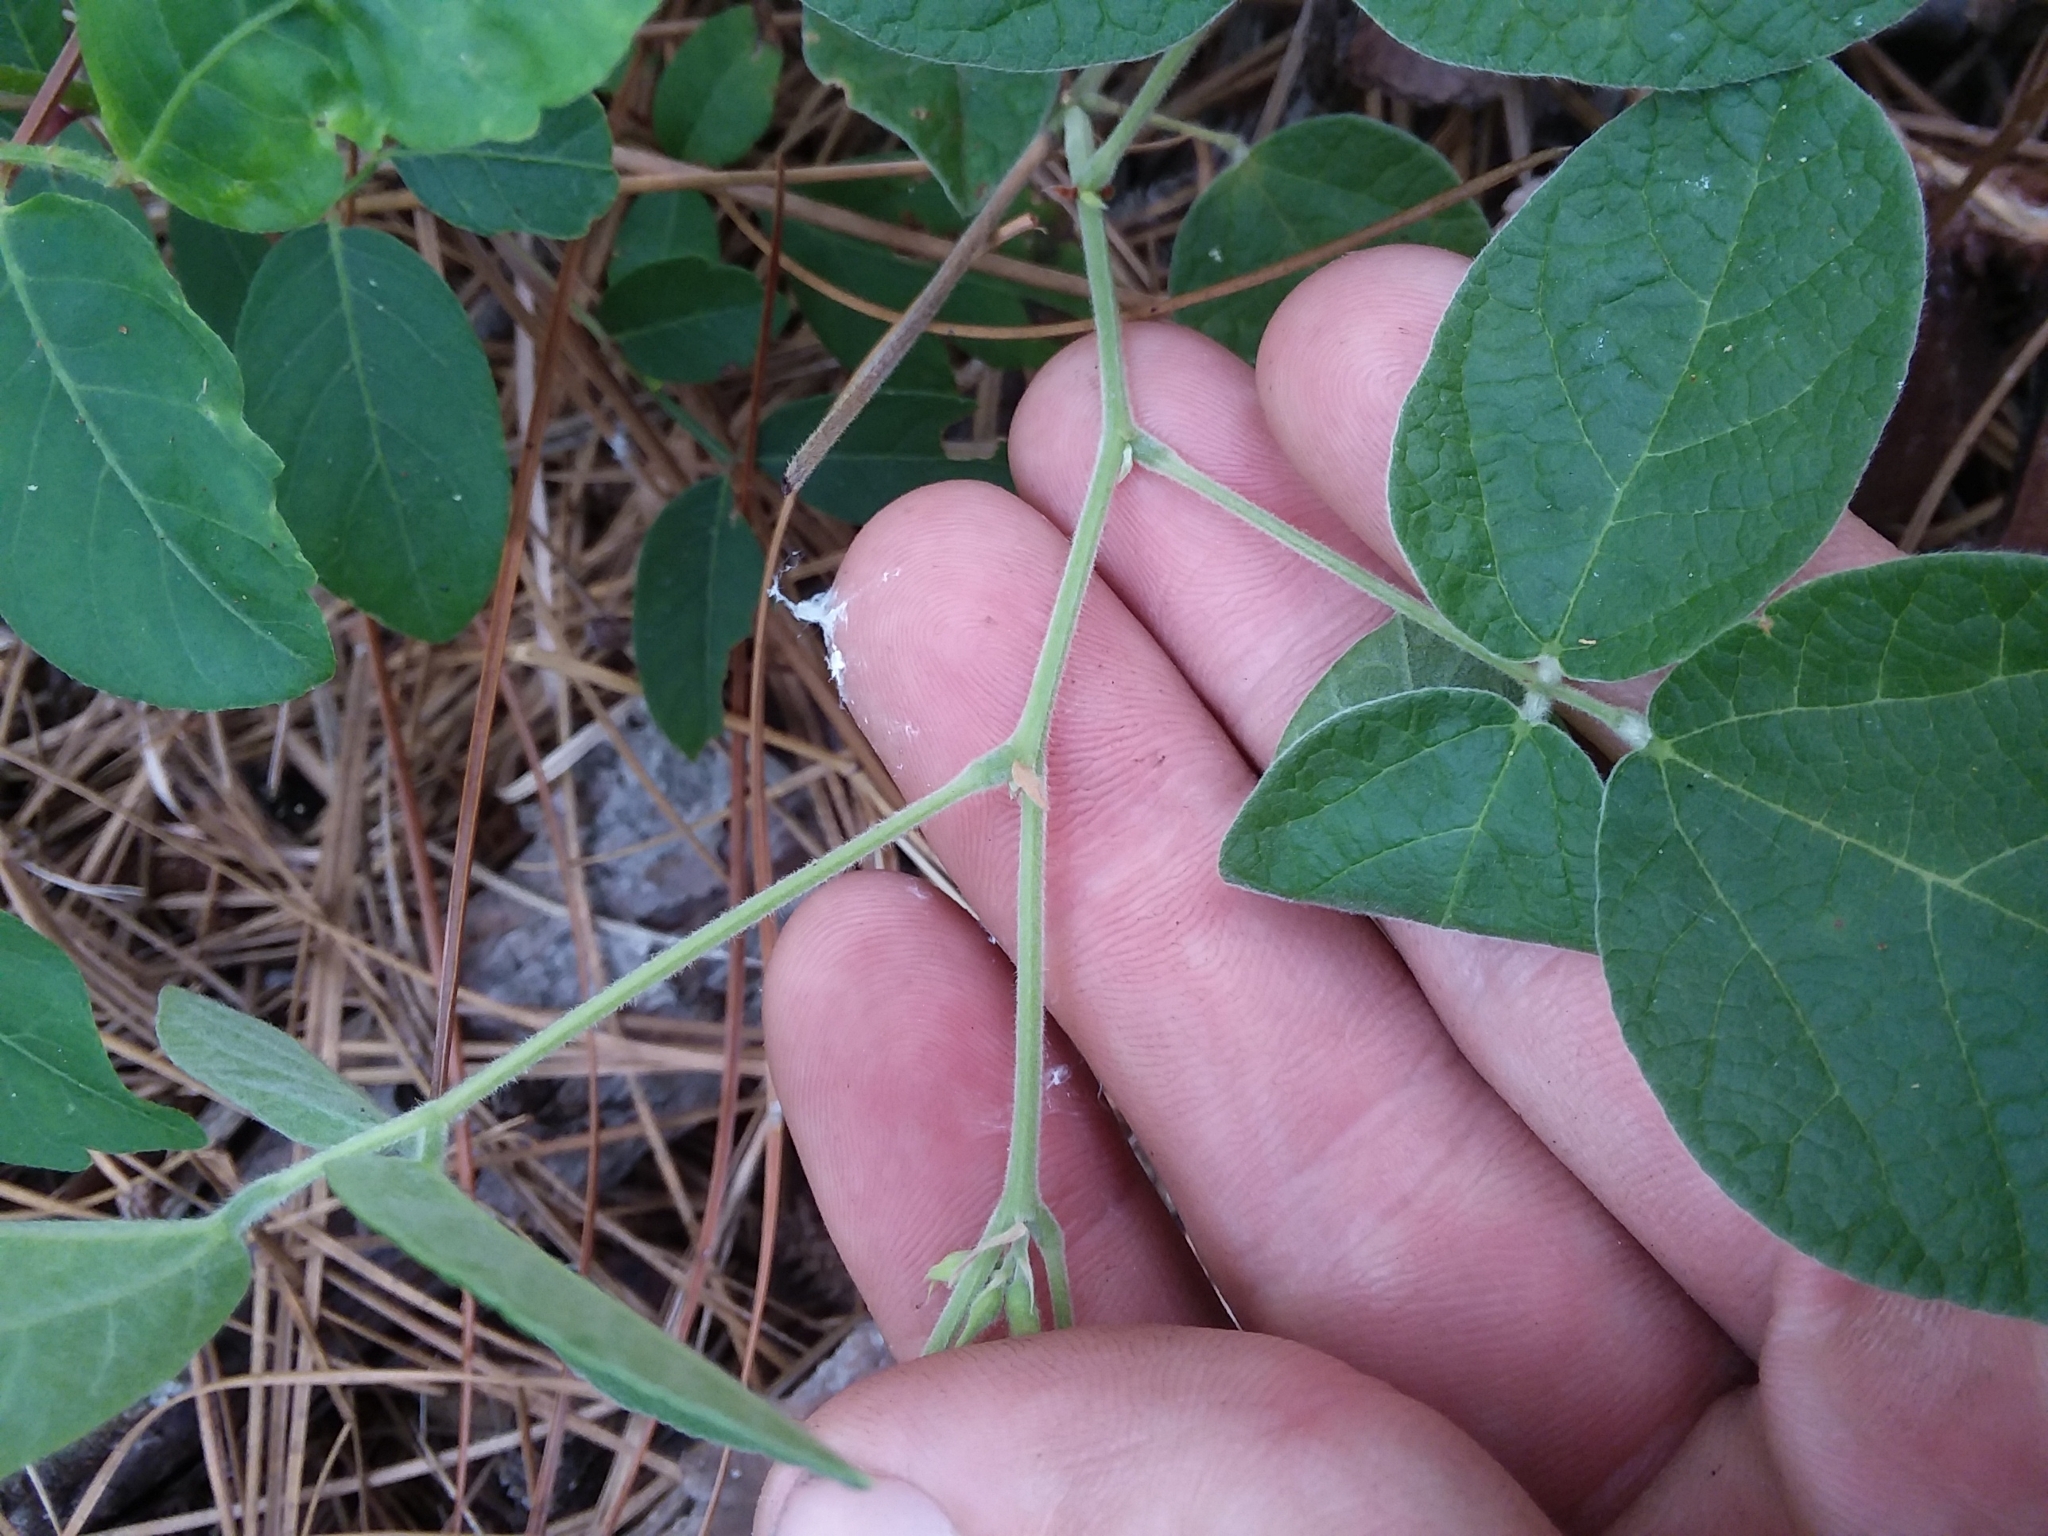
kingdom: Plantae
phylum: Tracheophyta
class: Magnoliopsida
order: Fabales
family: Fabaceae
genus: Rhynchosia
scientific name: Rhynchosia tomentosa
